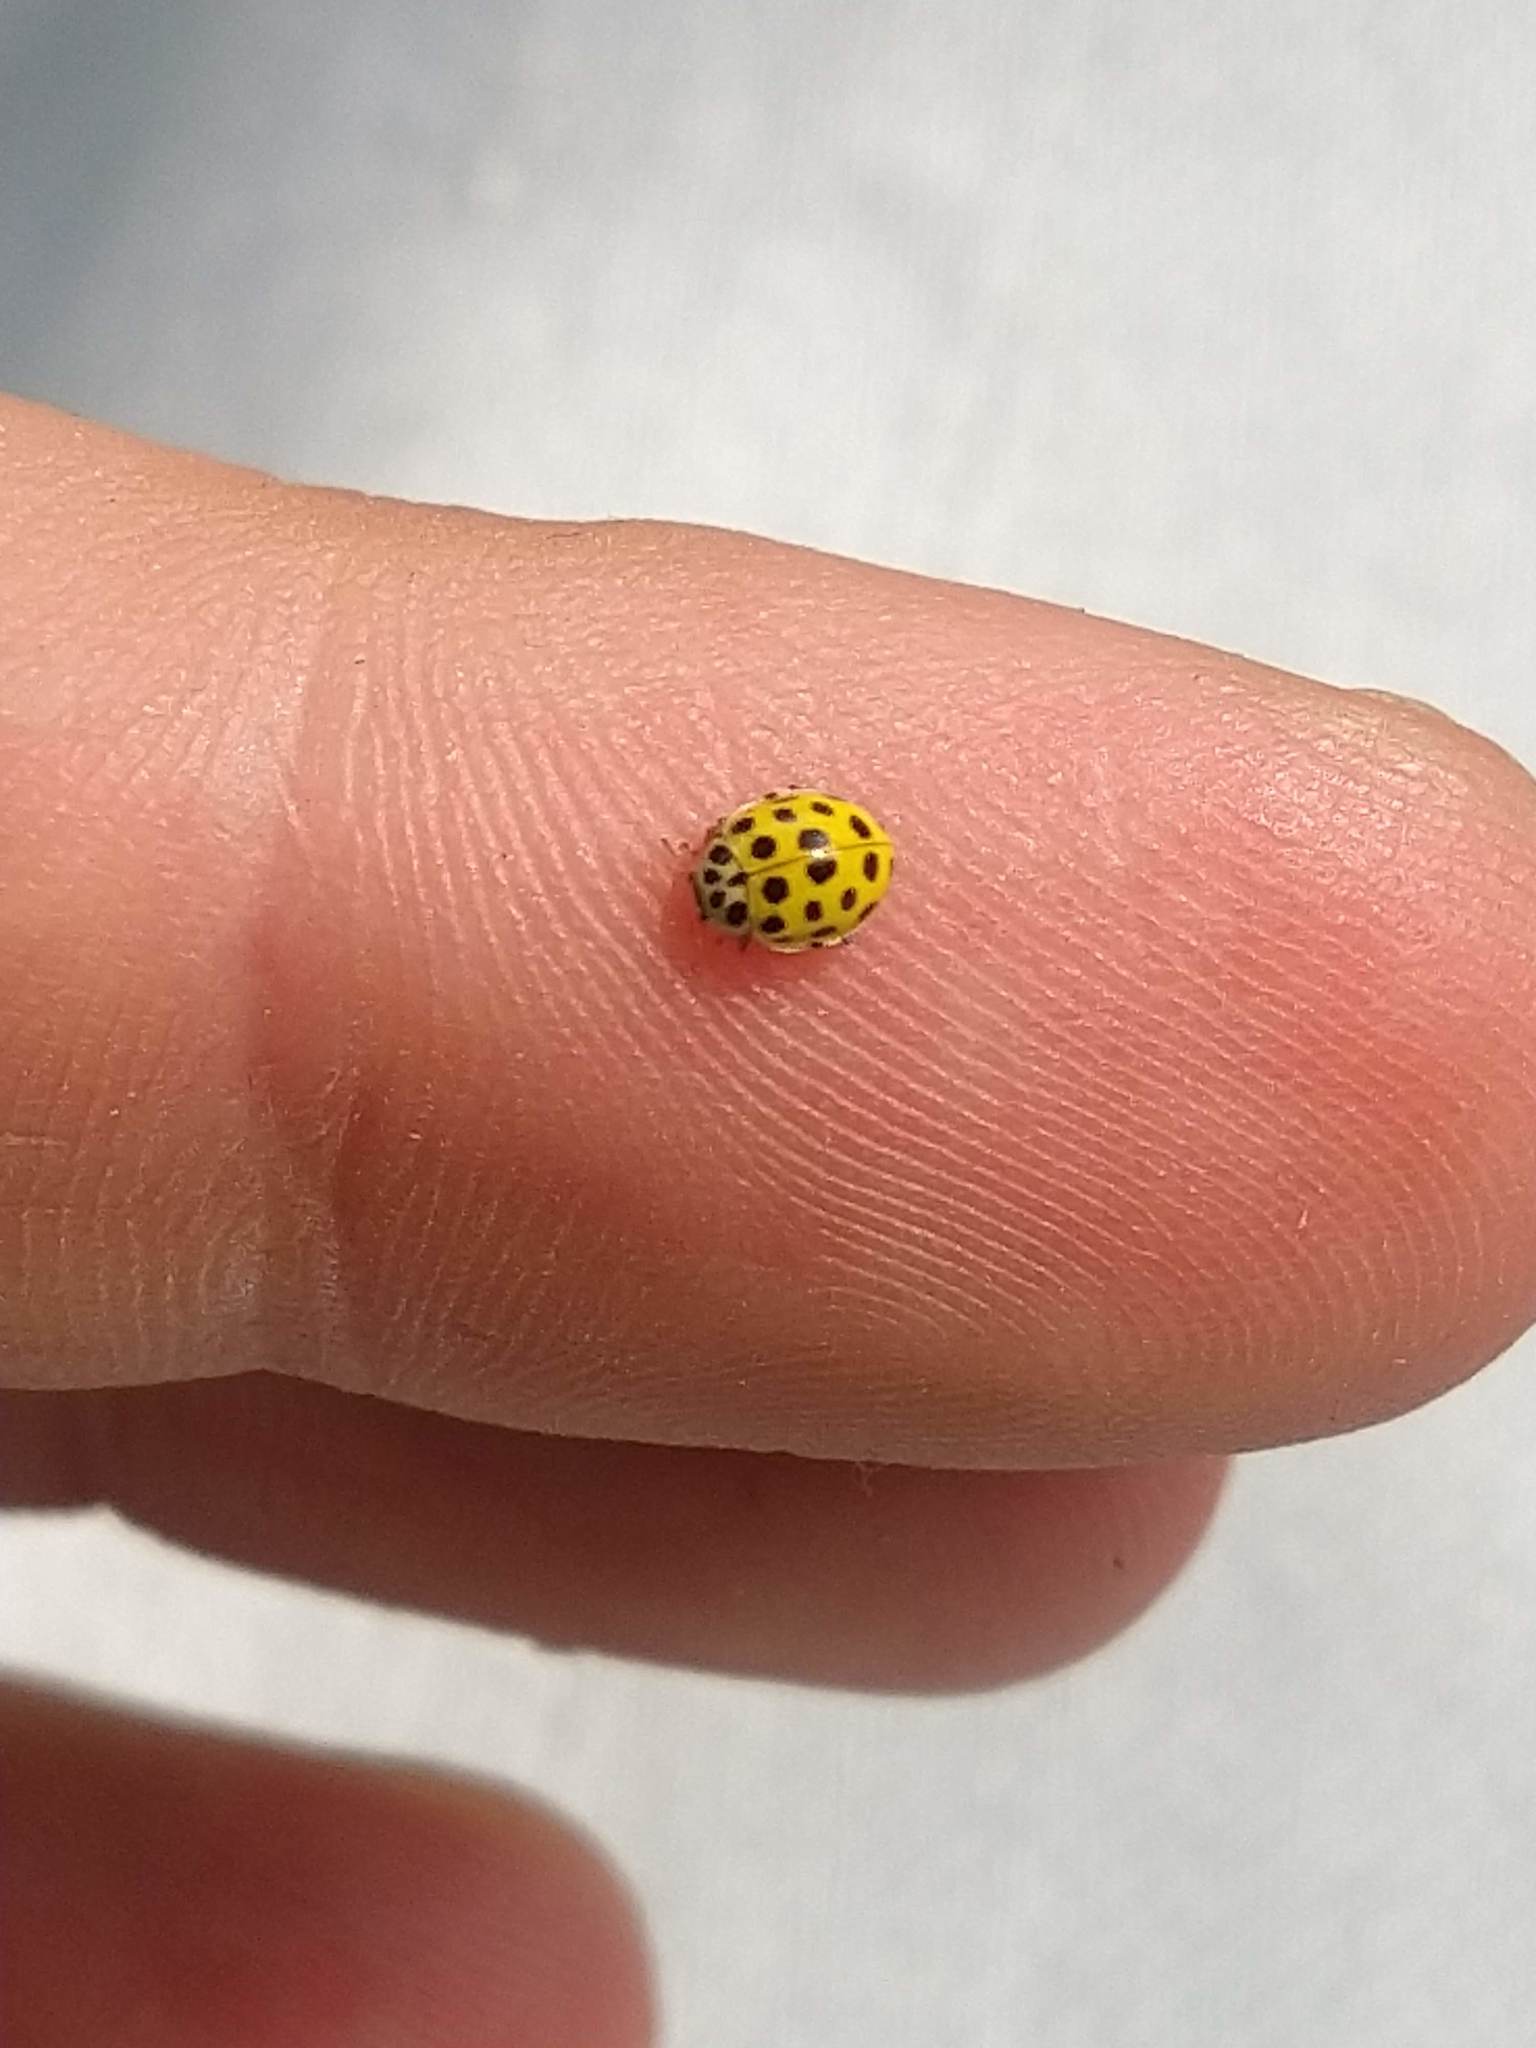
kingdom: Animalia
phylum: Arthropoda
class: Insecta
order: Coleoptera
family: Coccinellidae
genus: Psyllobora
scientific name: Psyllobora vigintiduopunctata
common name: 22-spot ladybird
